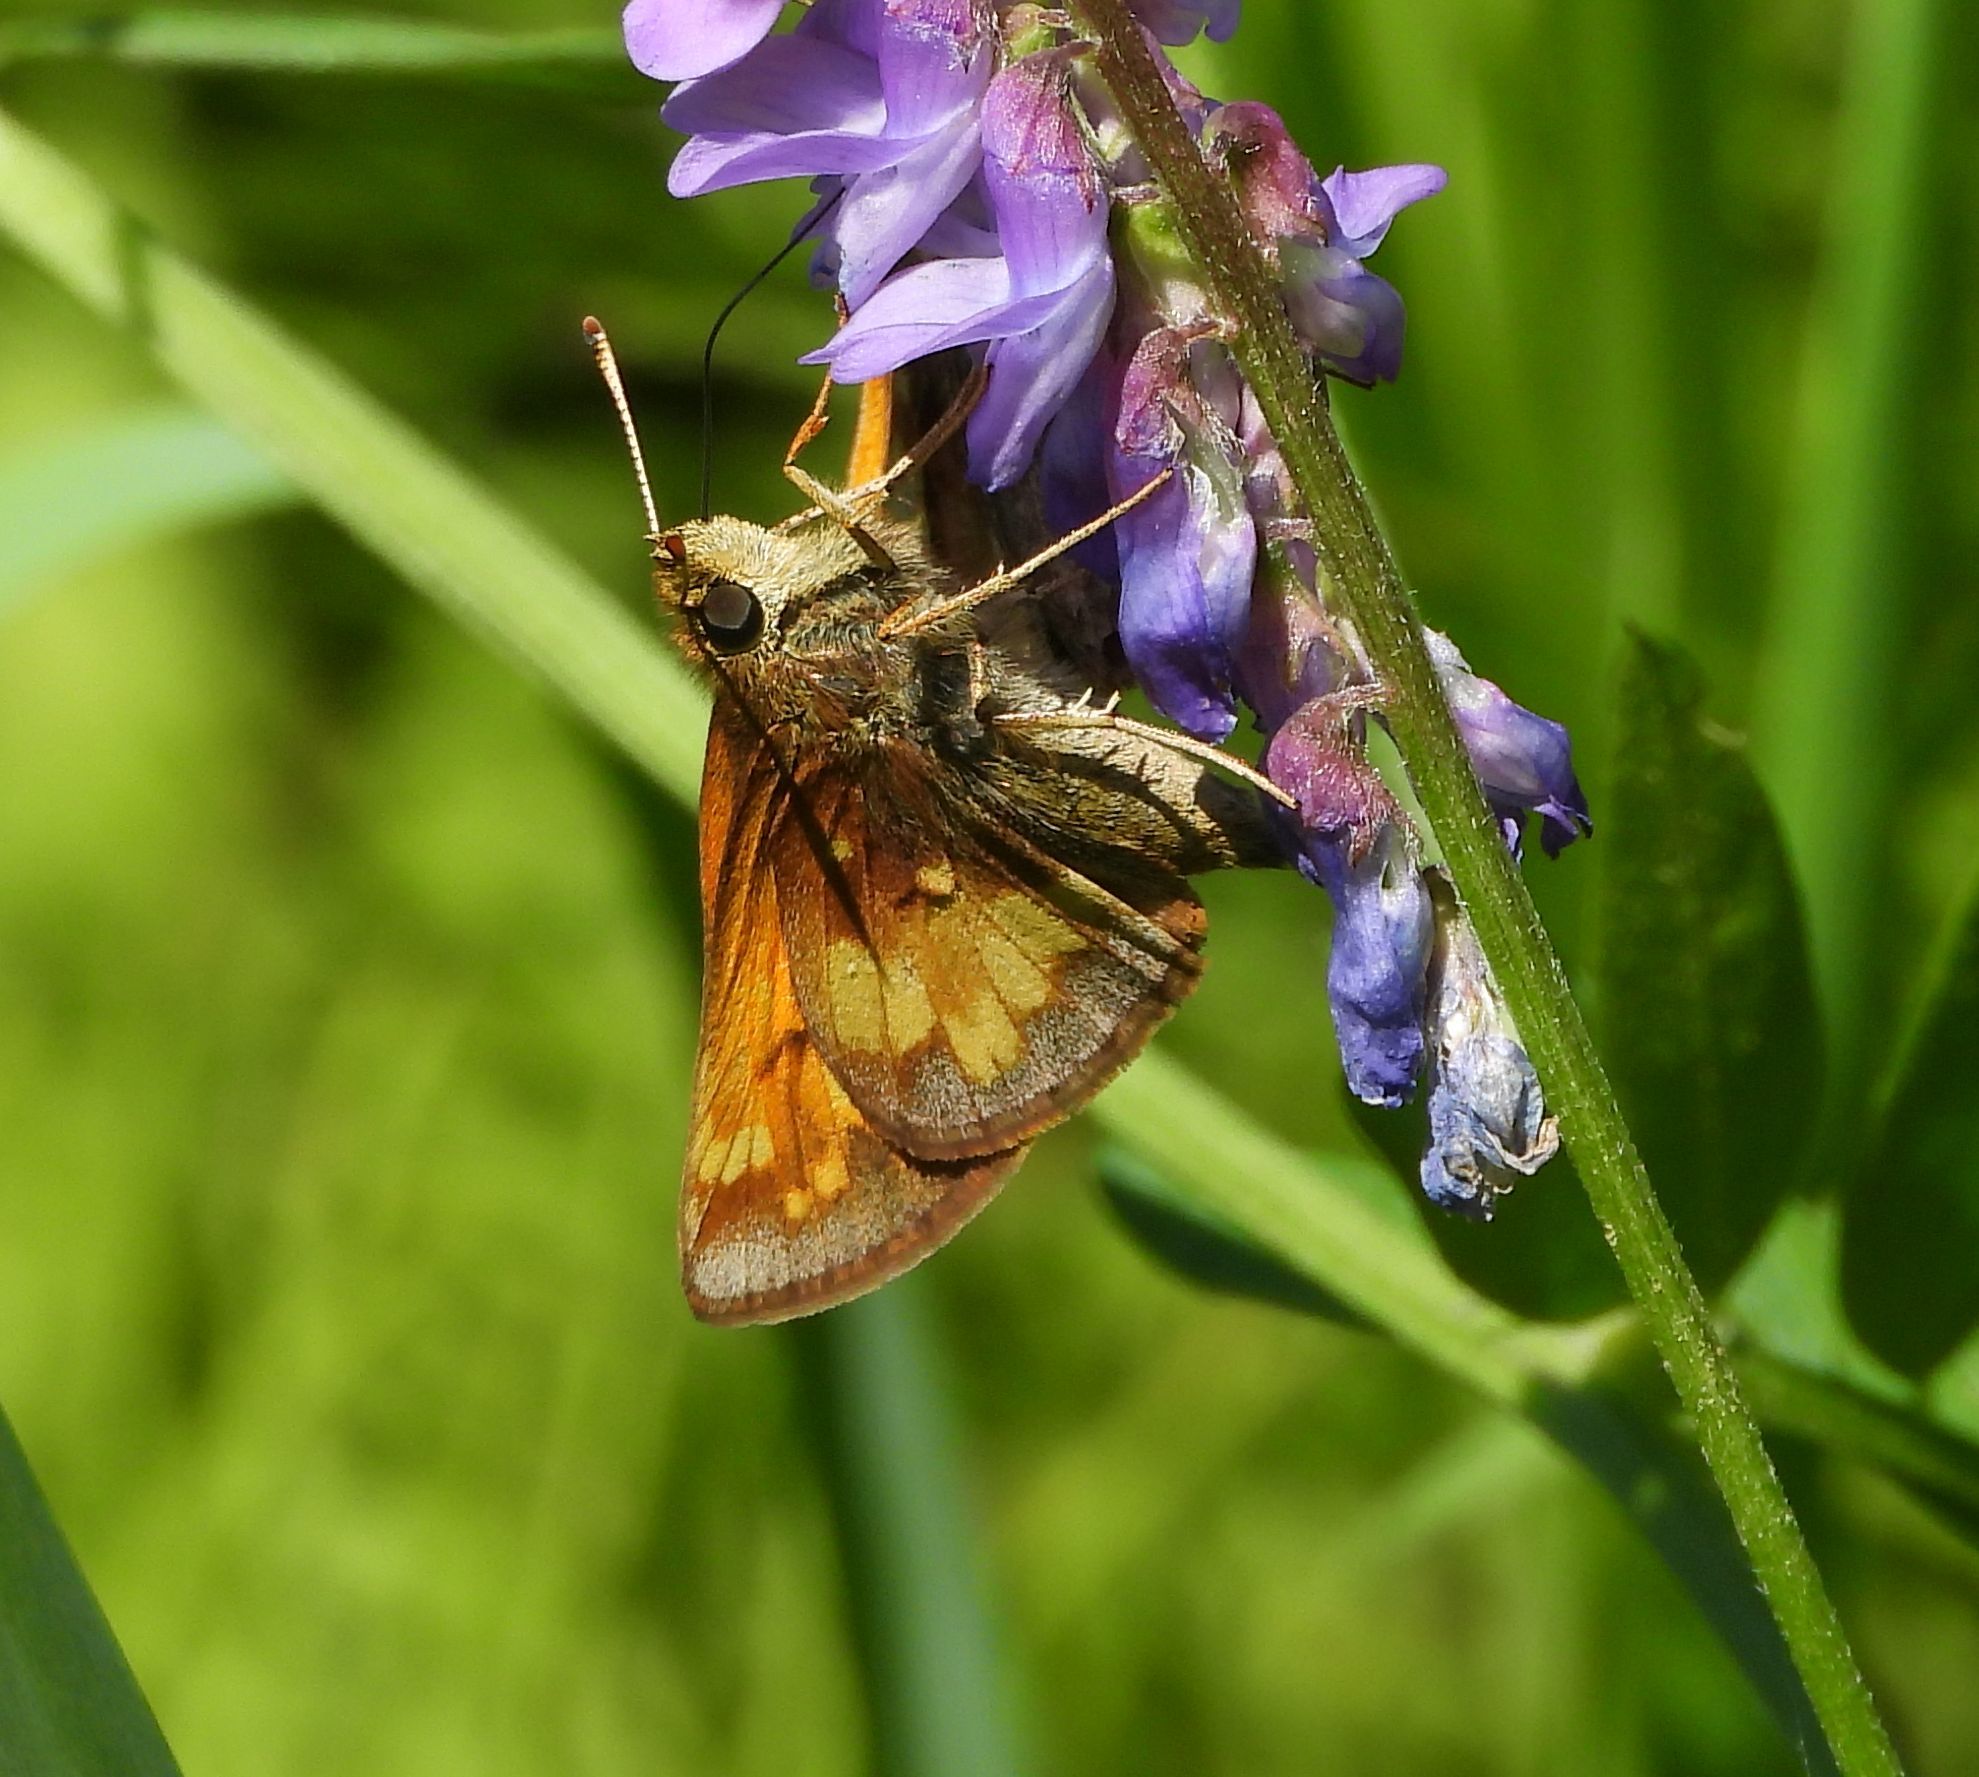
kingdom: Animalia
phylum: Arthropoda
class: Insecta
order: Lepidoptera
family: Hesperiidae
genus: Lon
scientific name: Lon hobomok
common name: Hobomok skipper
